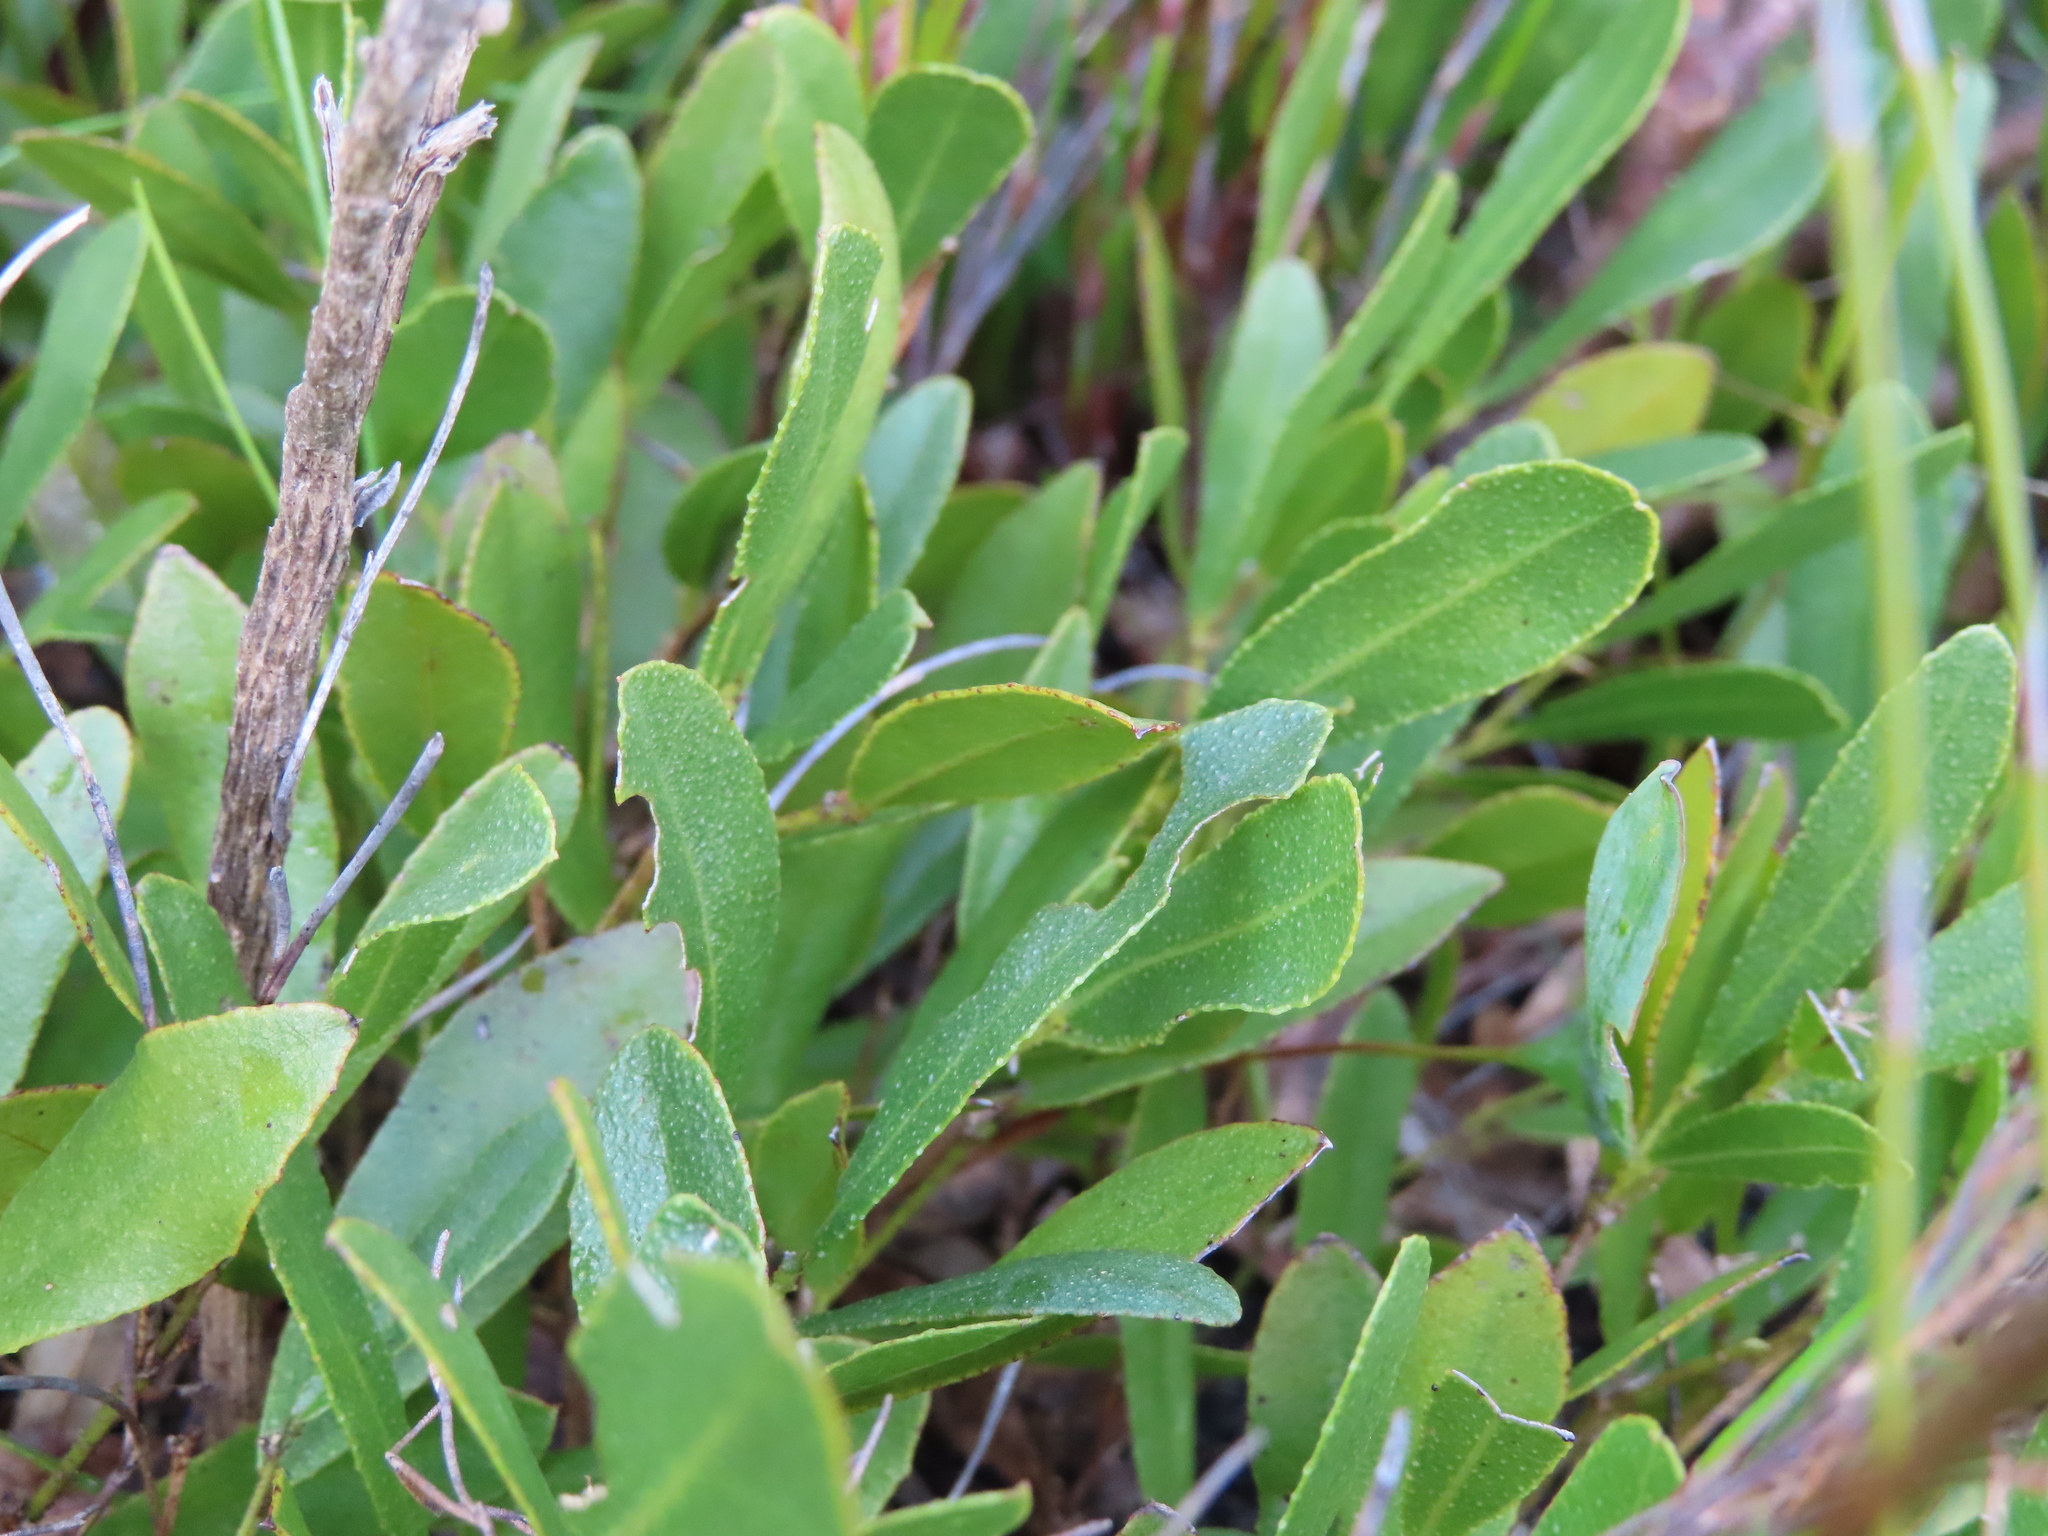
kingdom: Plantae
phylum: Tracheophyta
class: Magnoliopsida
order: Fabales
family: Fabaceae
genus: Psoralea
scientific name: Psoralea rotundifolia
